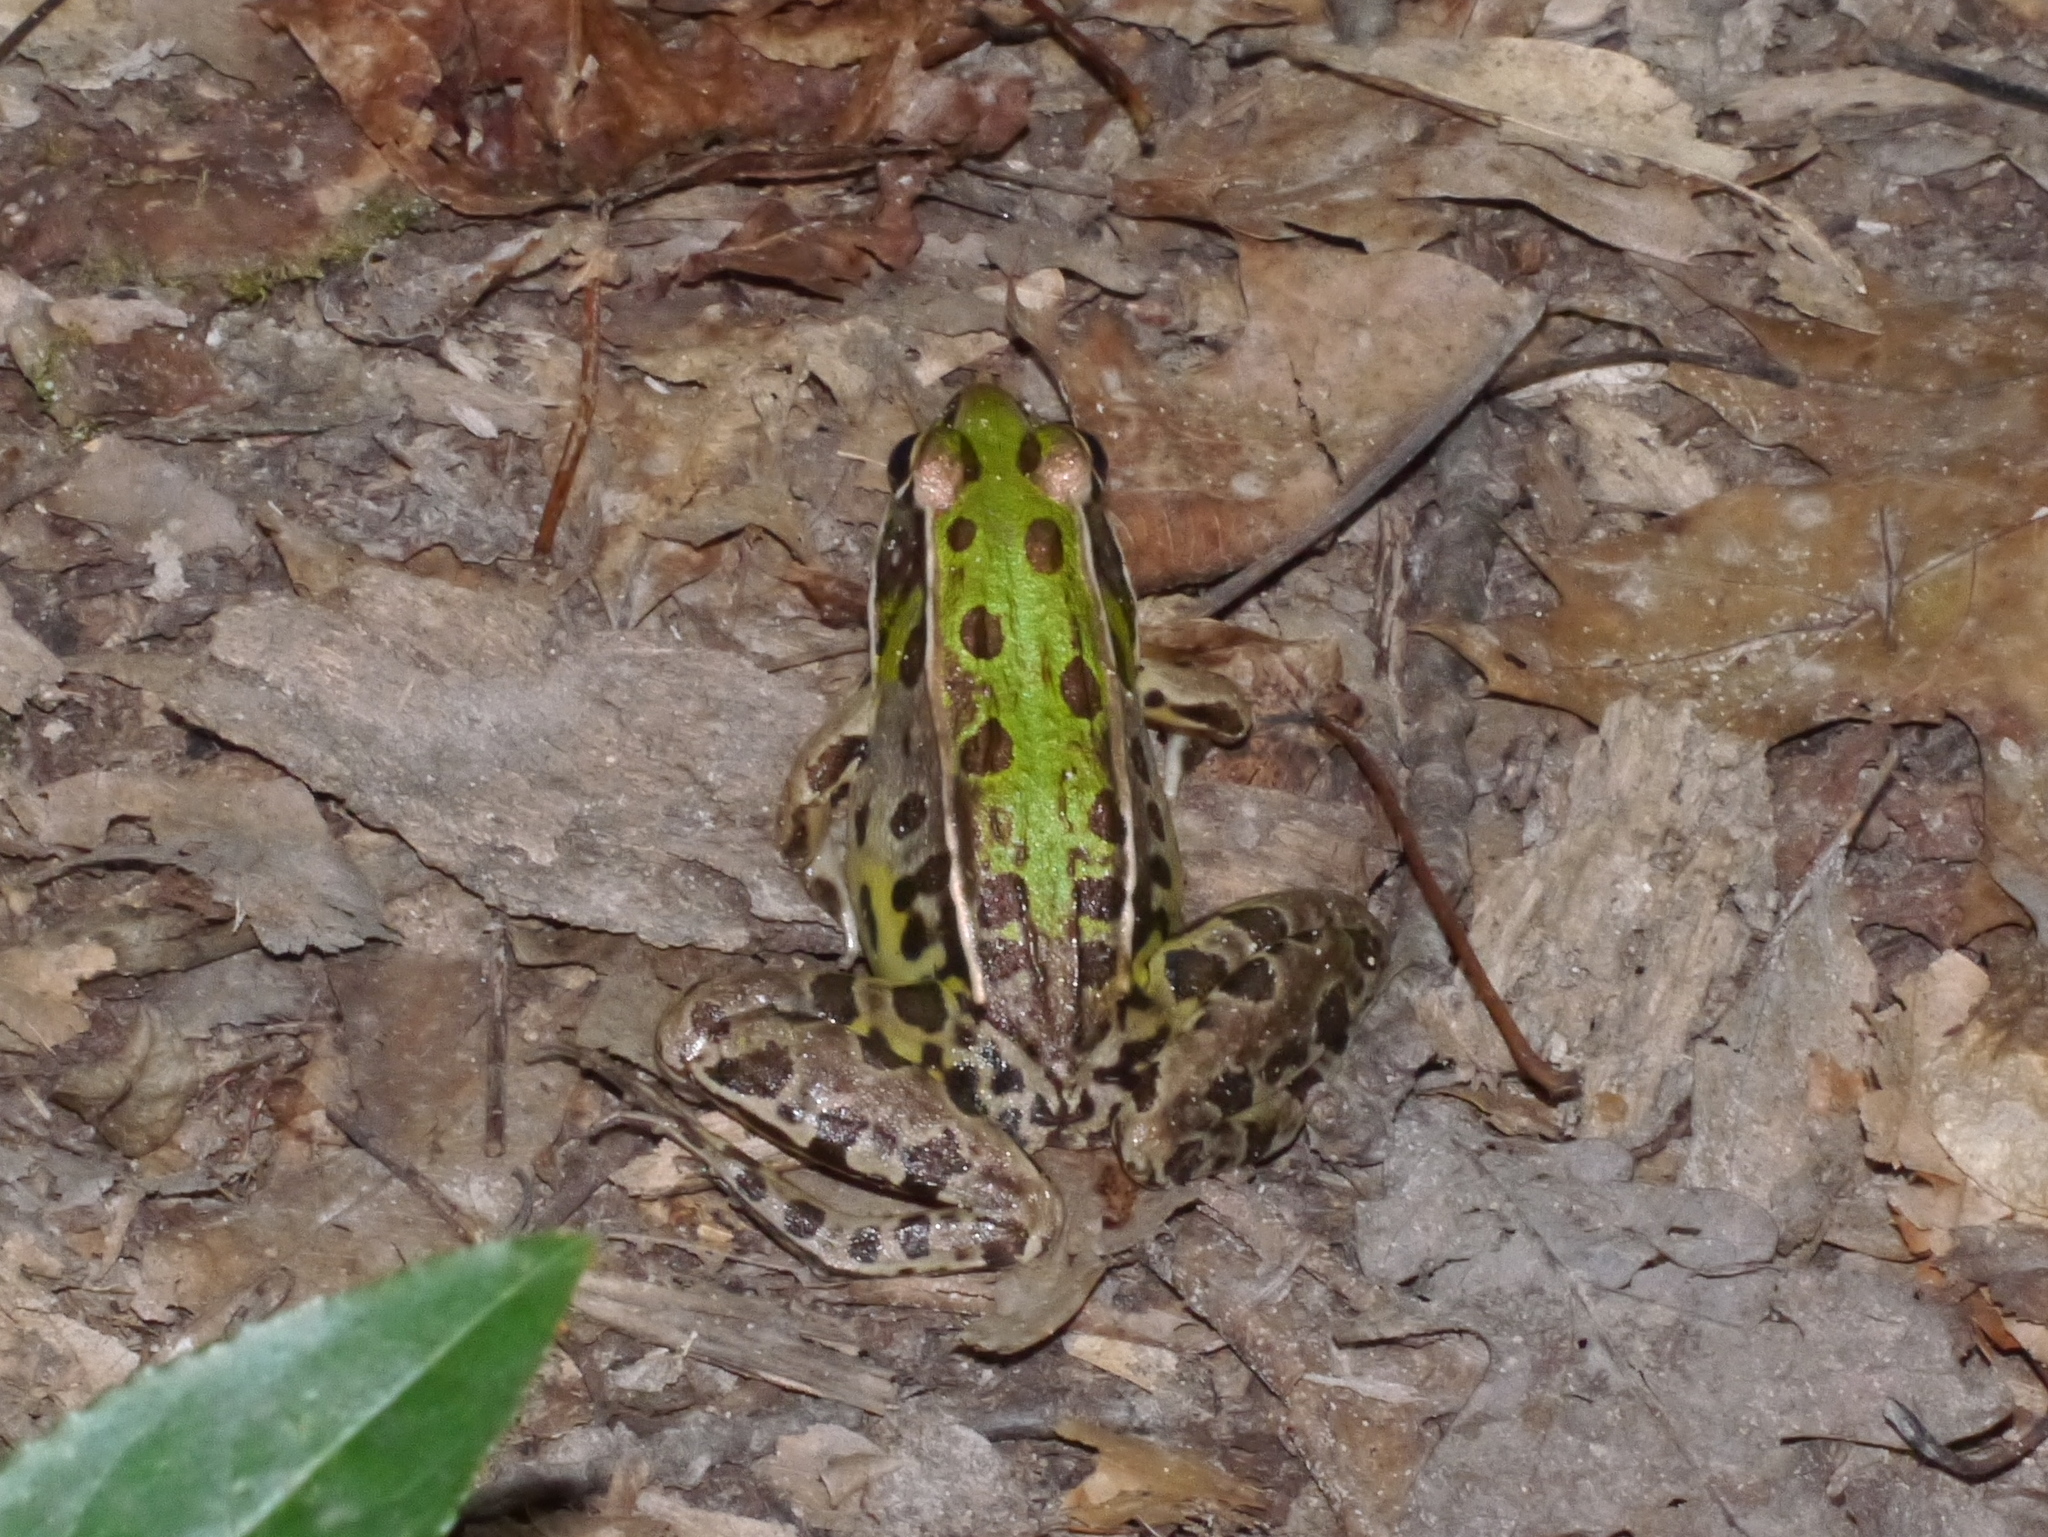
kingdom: Animalia
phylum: Chordata
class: Amphibia
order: Anura
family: Ranidae
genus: Lithobates
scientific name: Lithobates sphenocephalus
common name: Southern leopard frog
